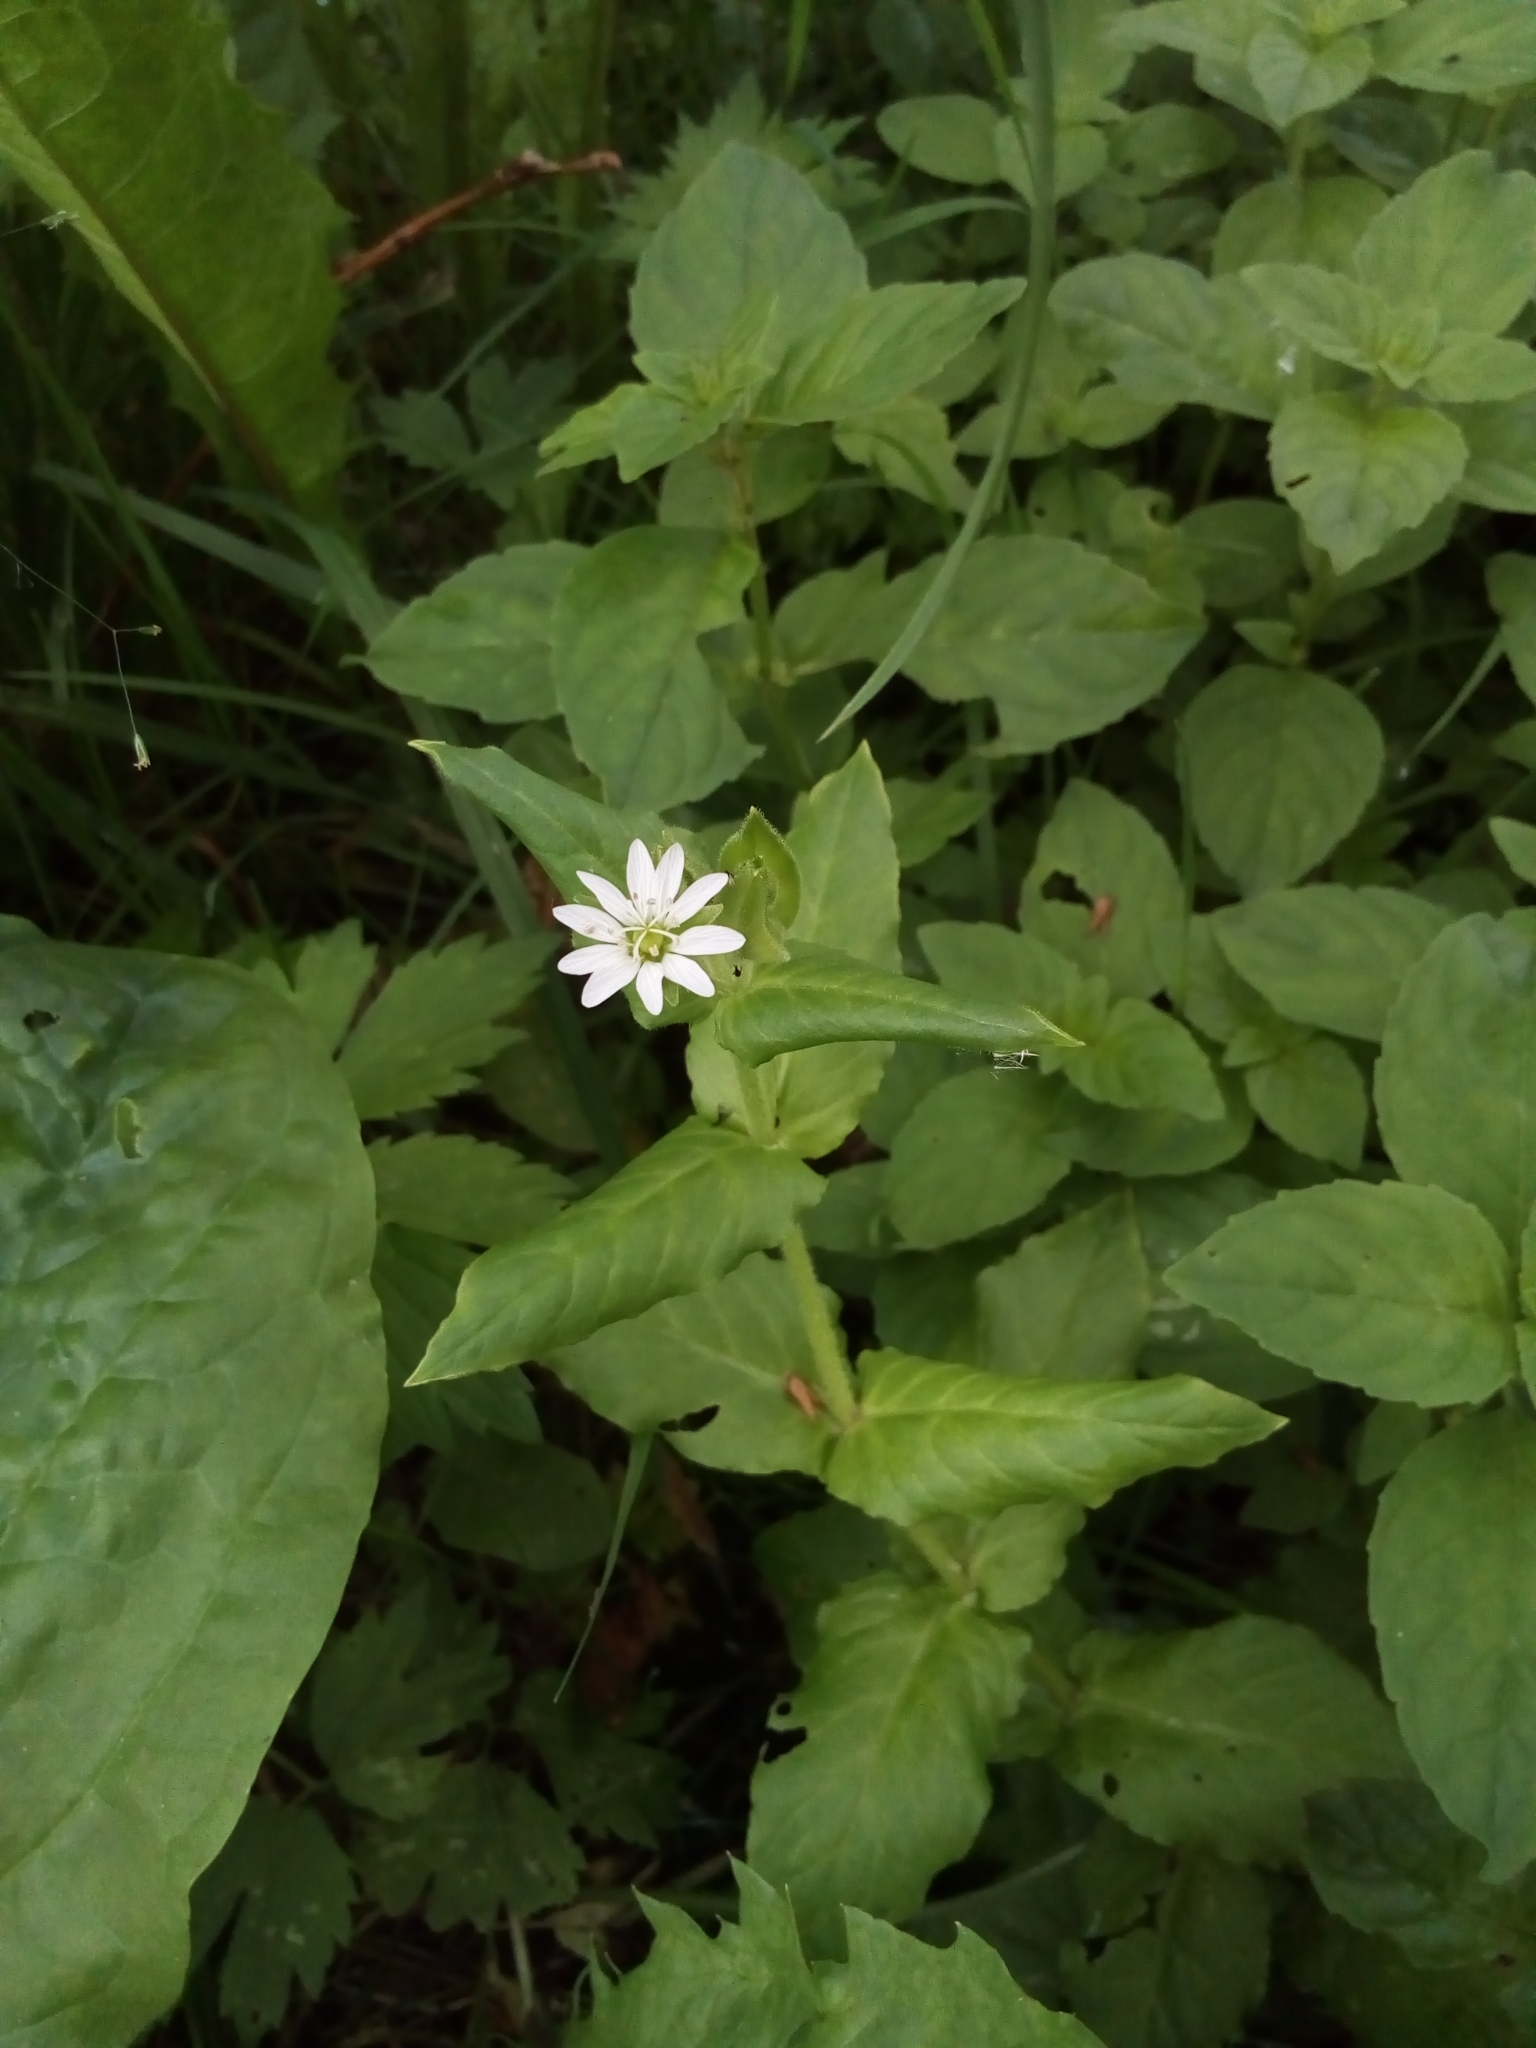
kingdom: Plantae
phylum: Tracheophyta
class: Magnoliopsida
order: Caryophyllales
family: Caryophyllaceae
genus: Stellaria
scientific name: Stellaria aquatica
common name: Water chickweed
